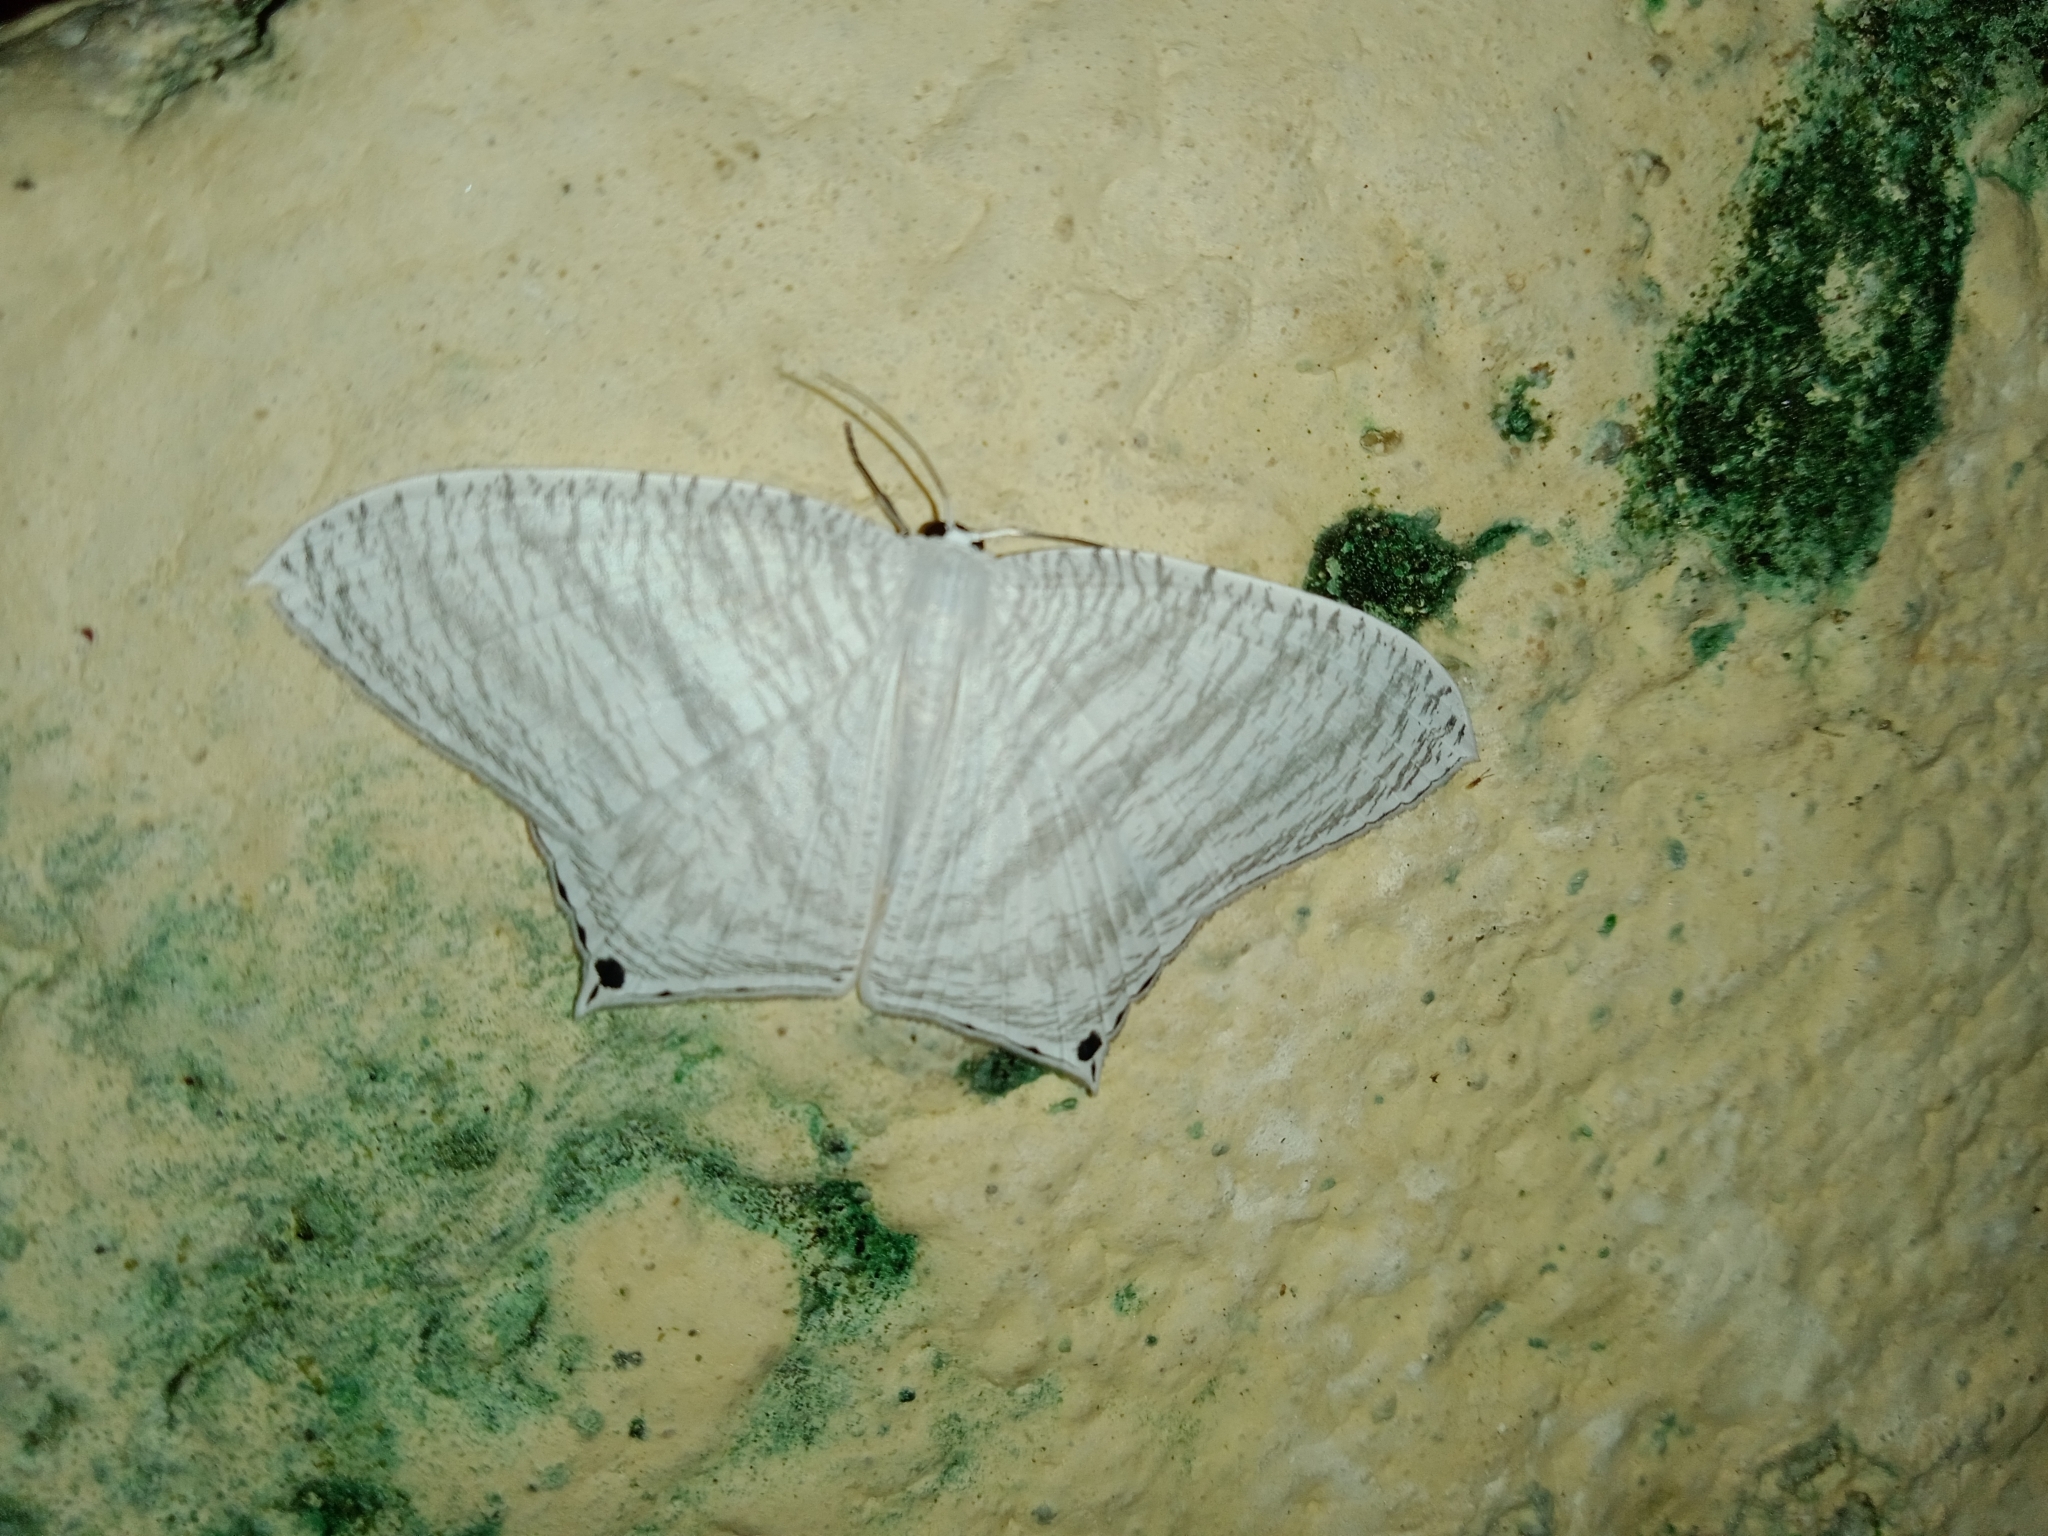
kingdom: Animalia
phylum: Arthropoda
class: Insecta
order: Lepidoptera
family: Uraniidae
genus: Micronia
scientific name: Micronia aculeata
